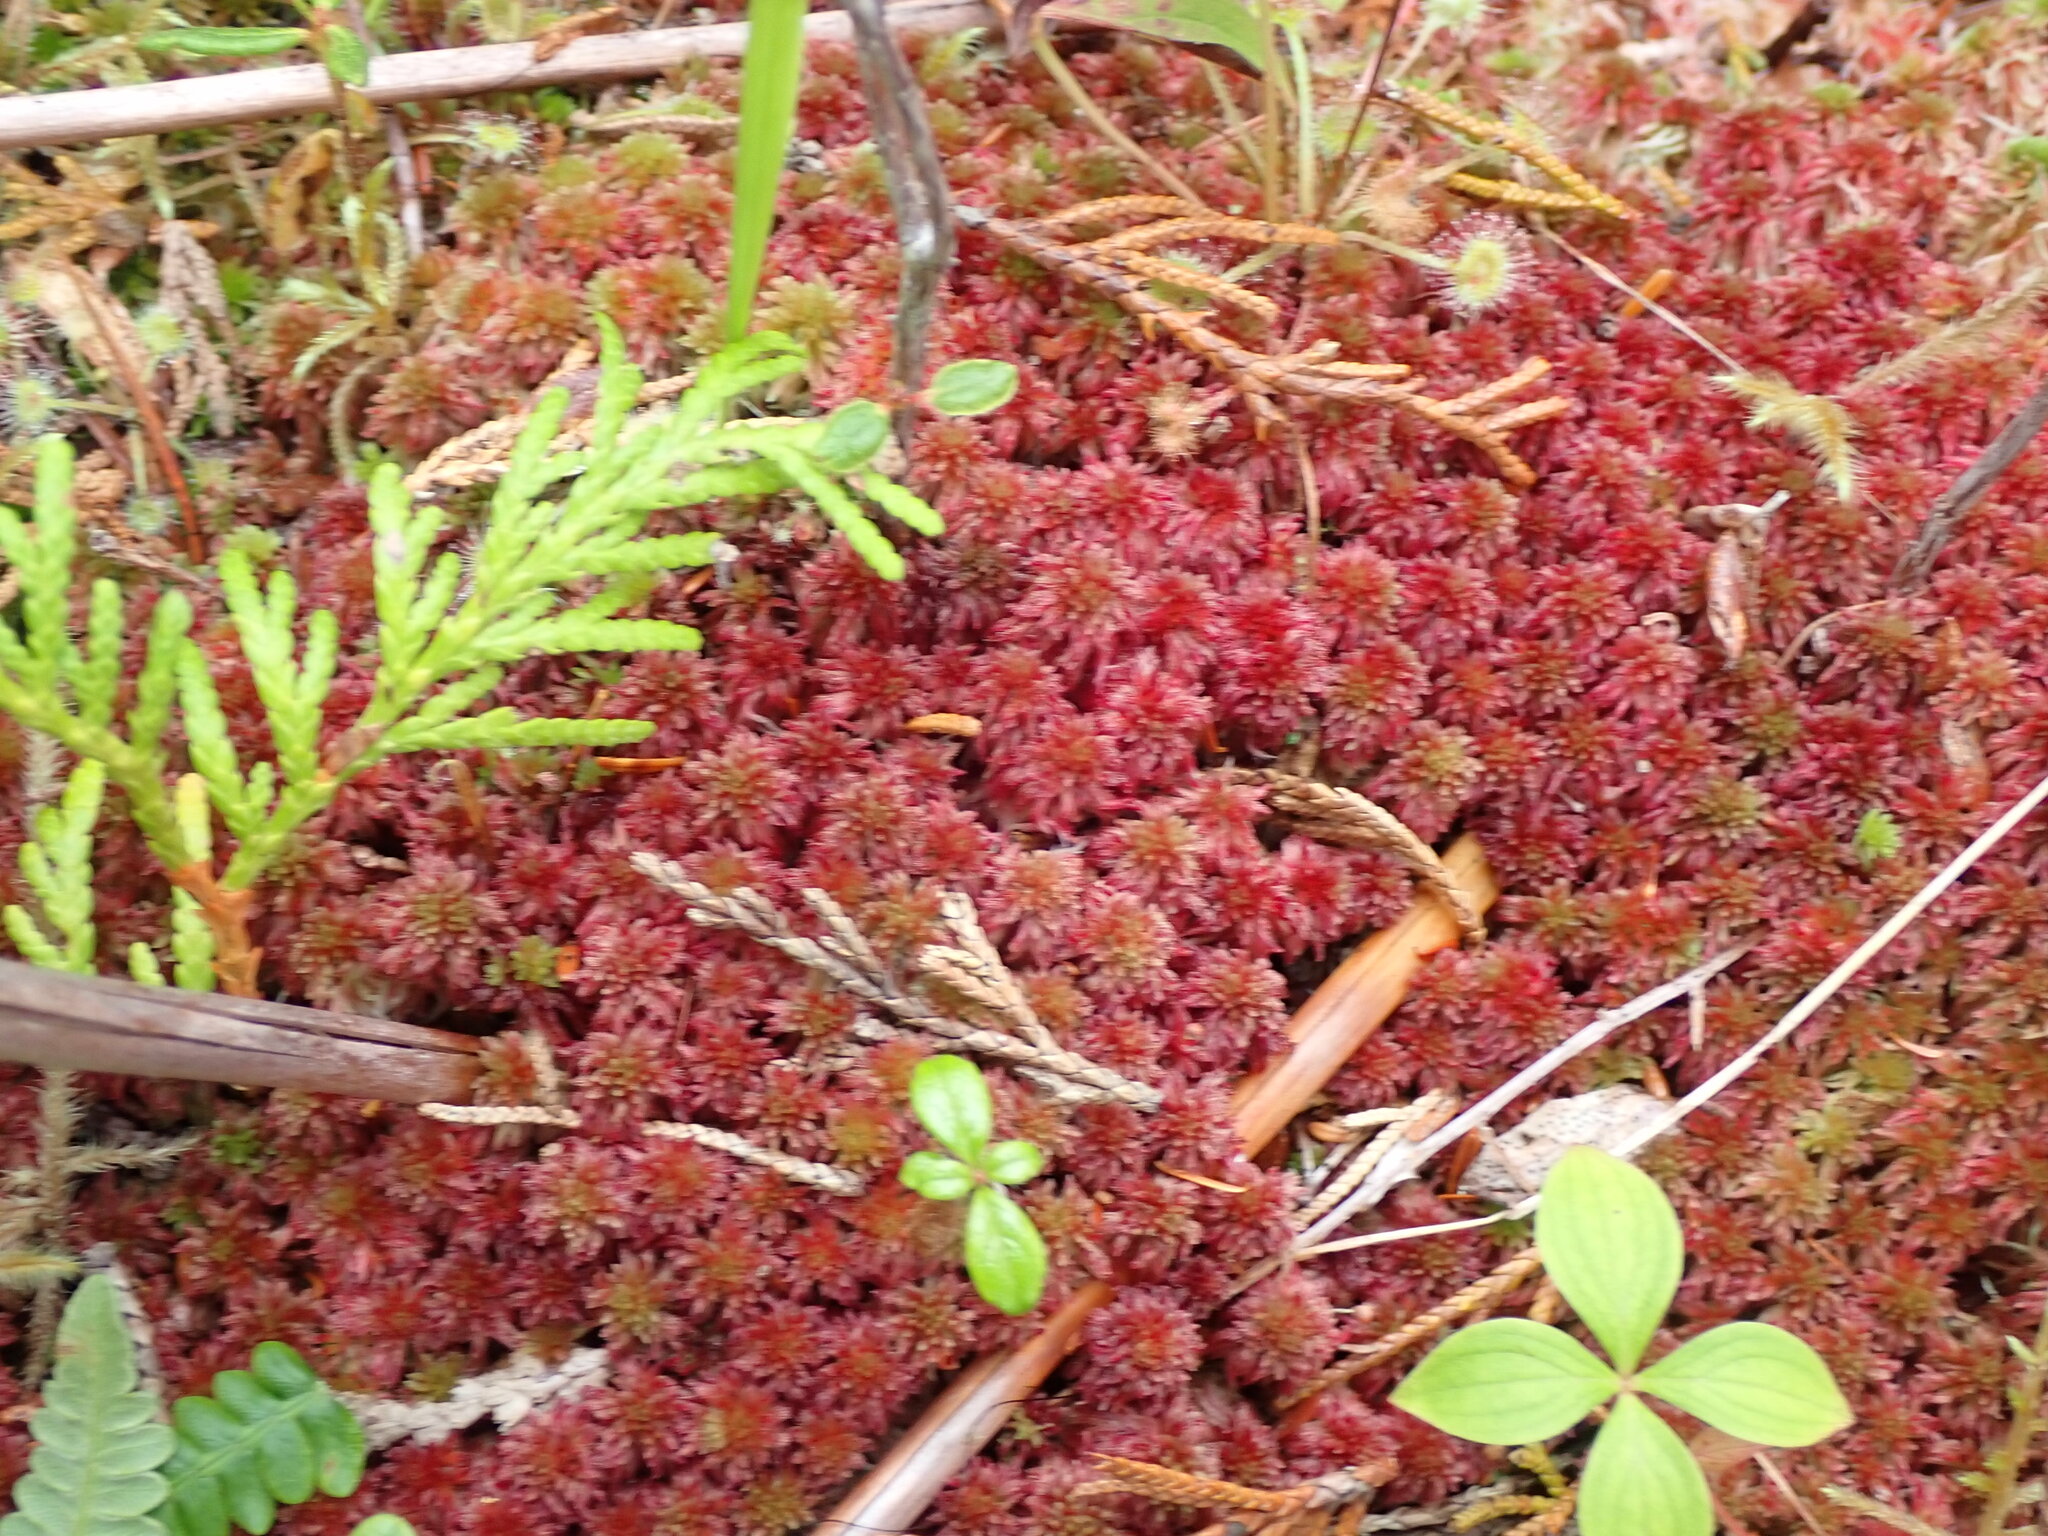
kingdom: Plantae
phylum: Bryophyta
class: Sphagnopsida
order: Sphagnales
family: Sphagnaceae
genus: Sphagnum
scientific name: Sphagnum capillifolium
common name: Small red peat moss
